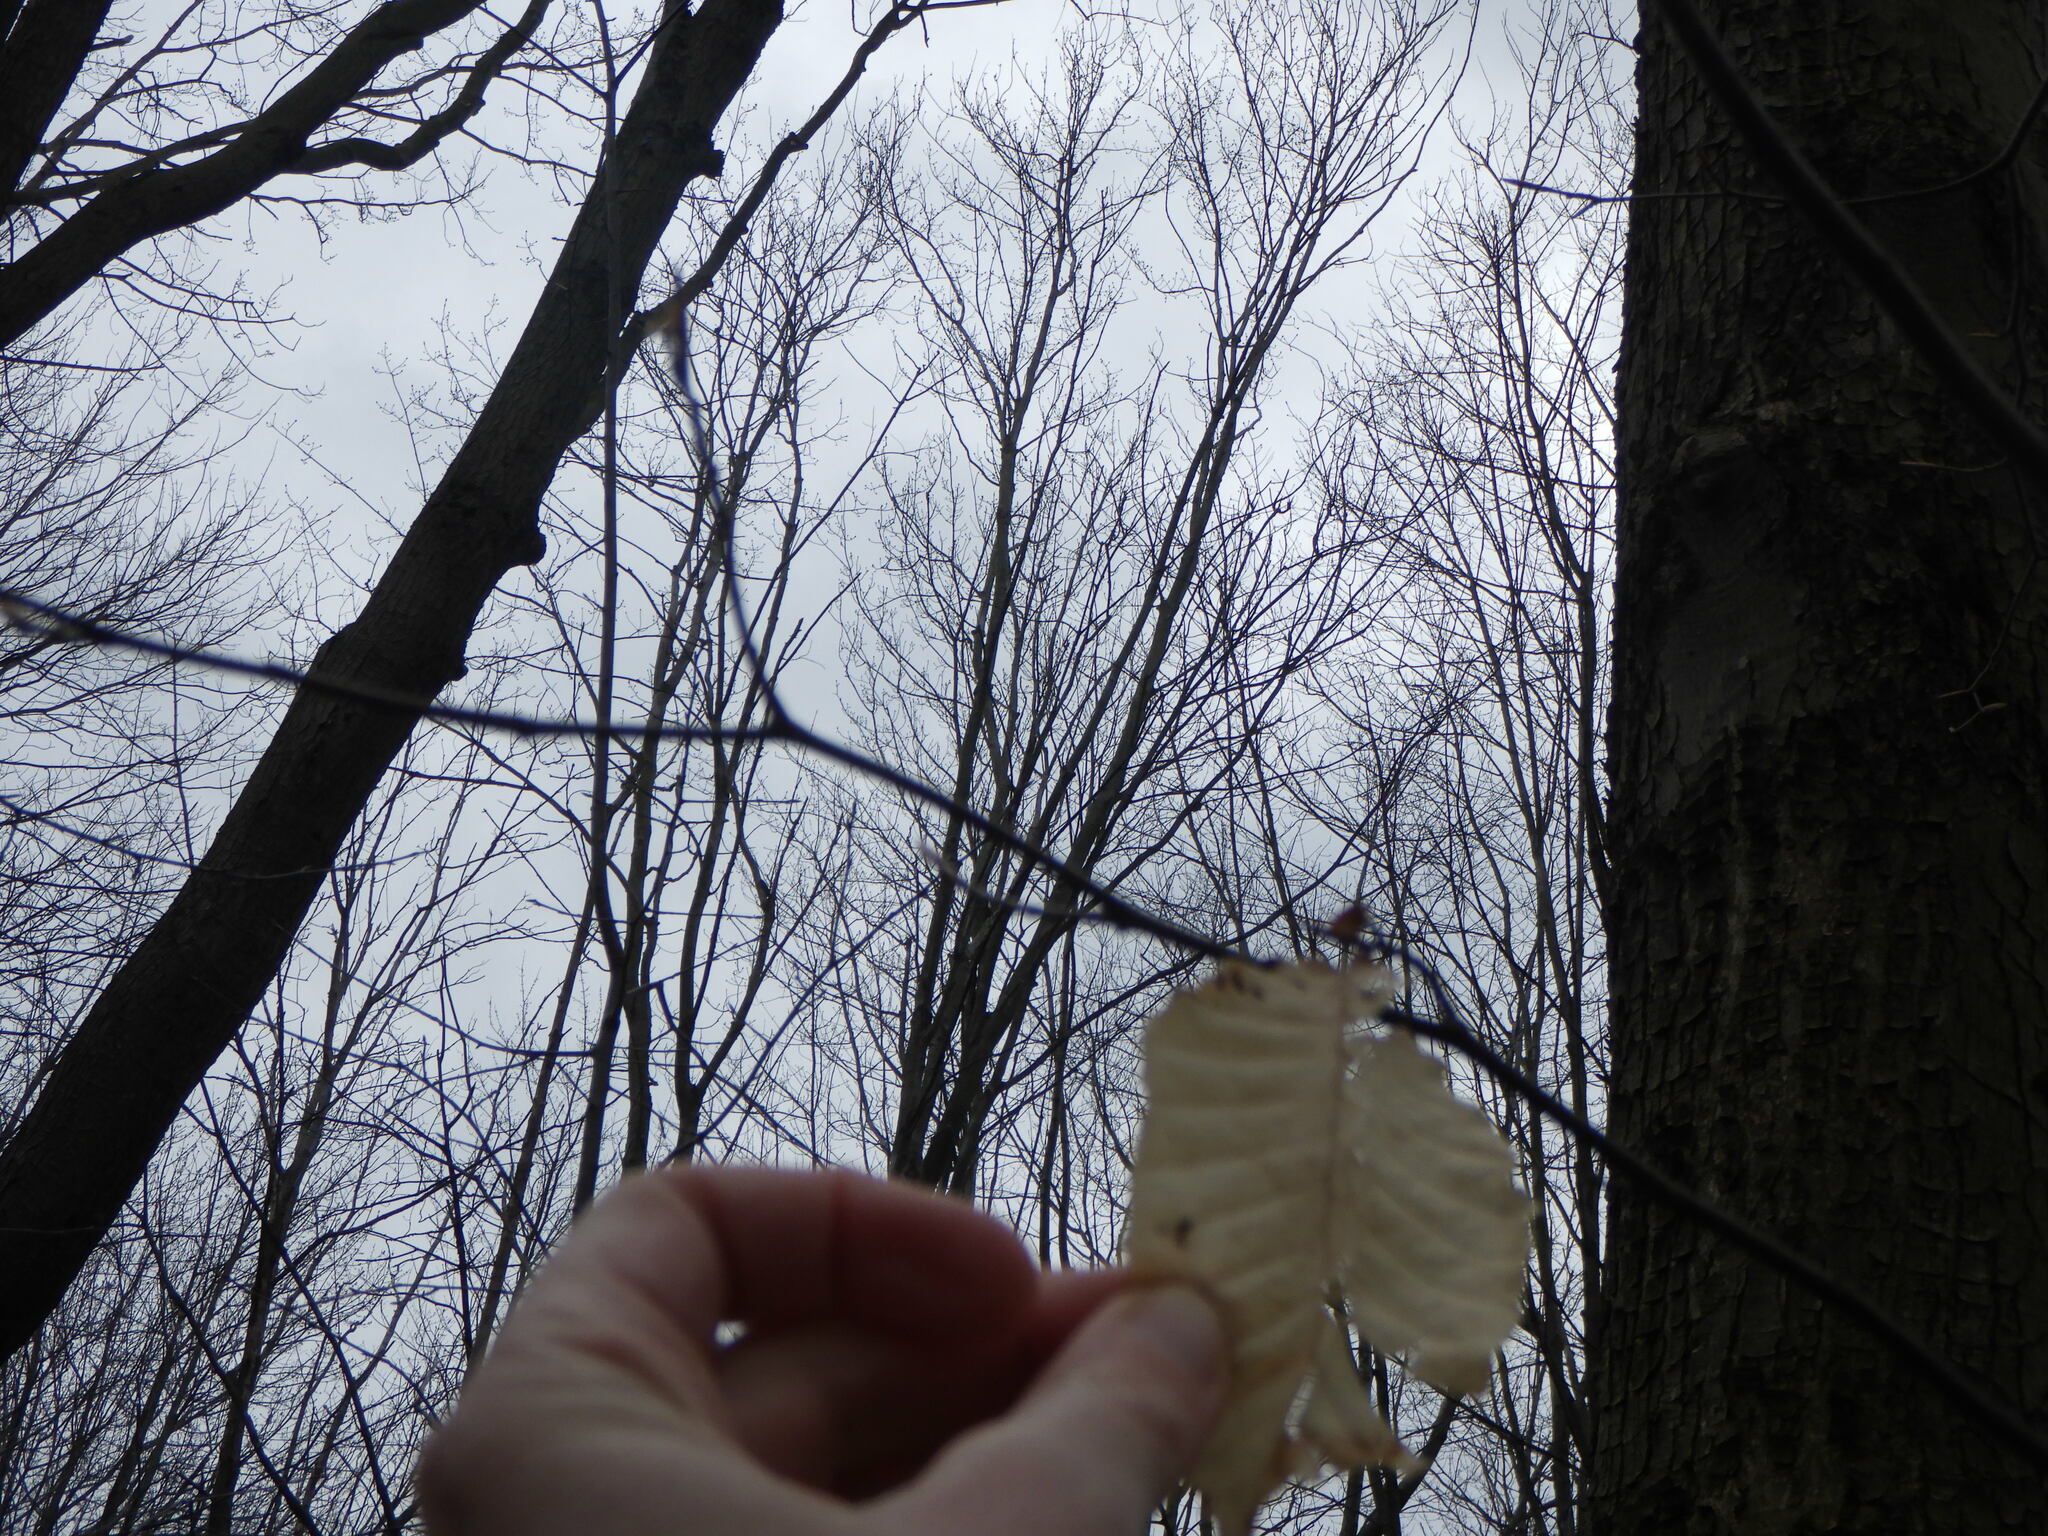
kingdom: Plantae
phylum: Tracheophyta
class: Magnoliopsida
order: Fagales
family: Fagaceae
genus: Fagus
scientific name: Fagus grandifolia
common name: American beech
